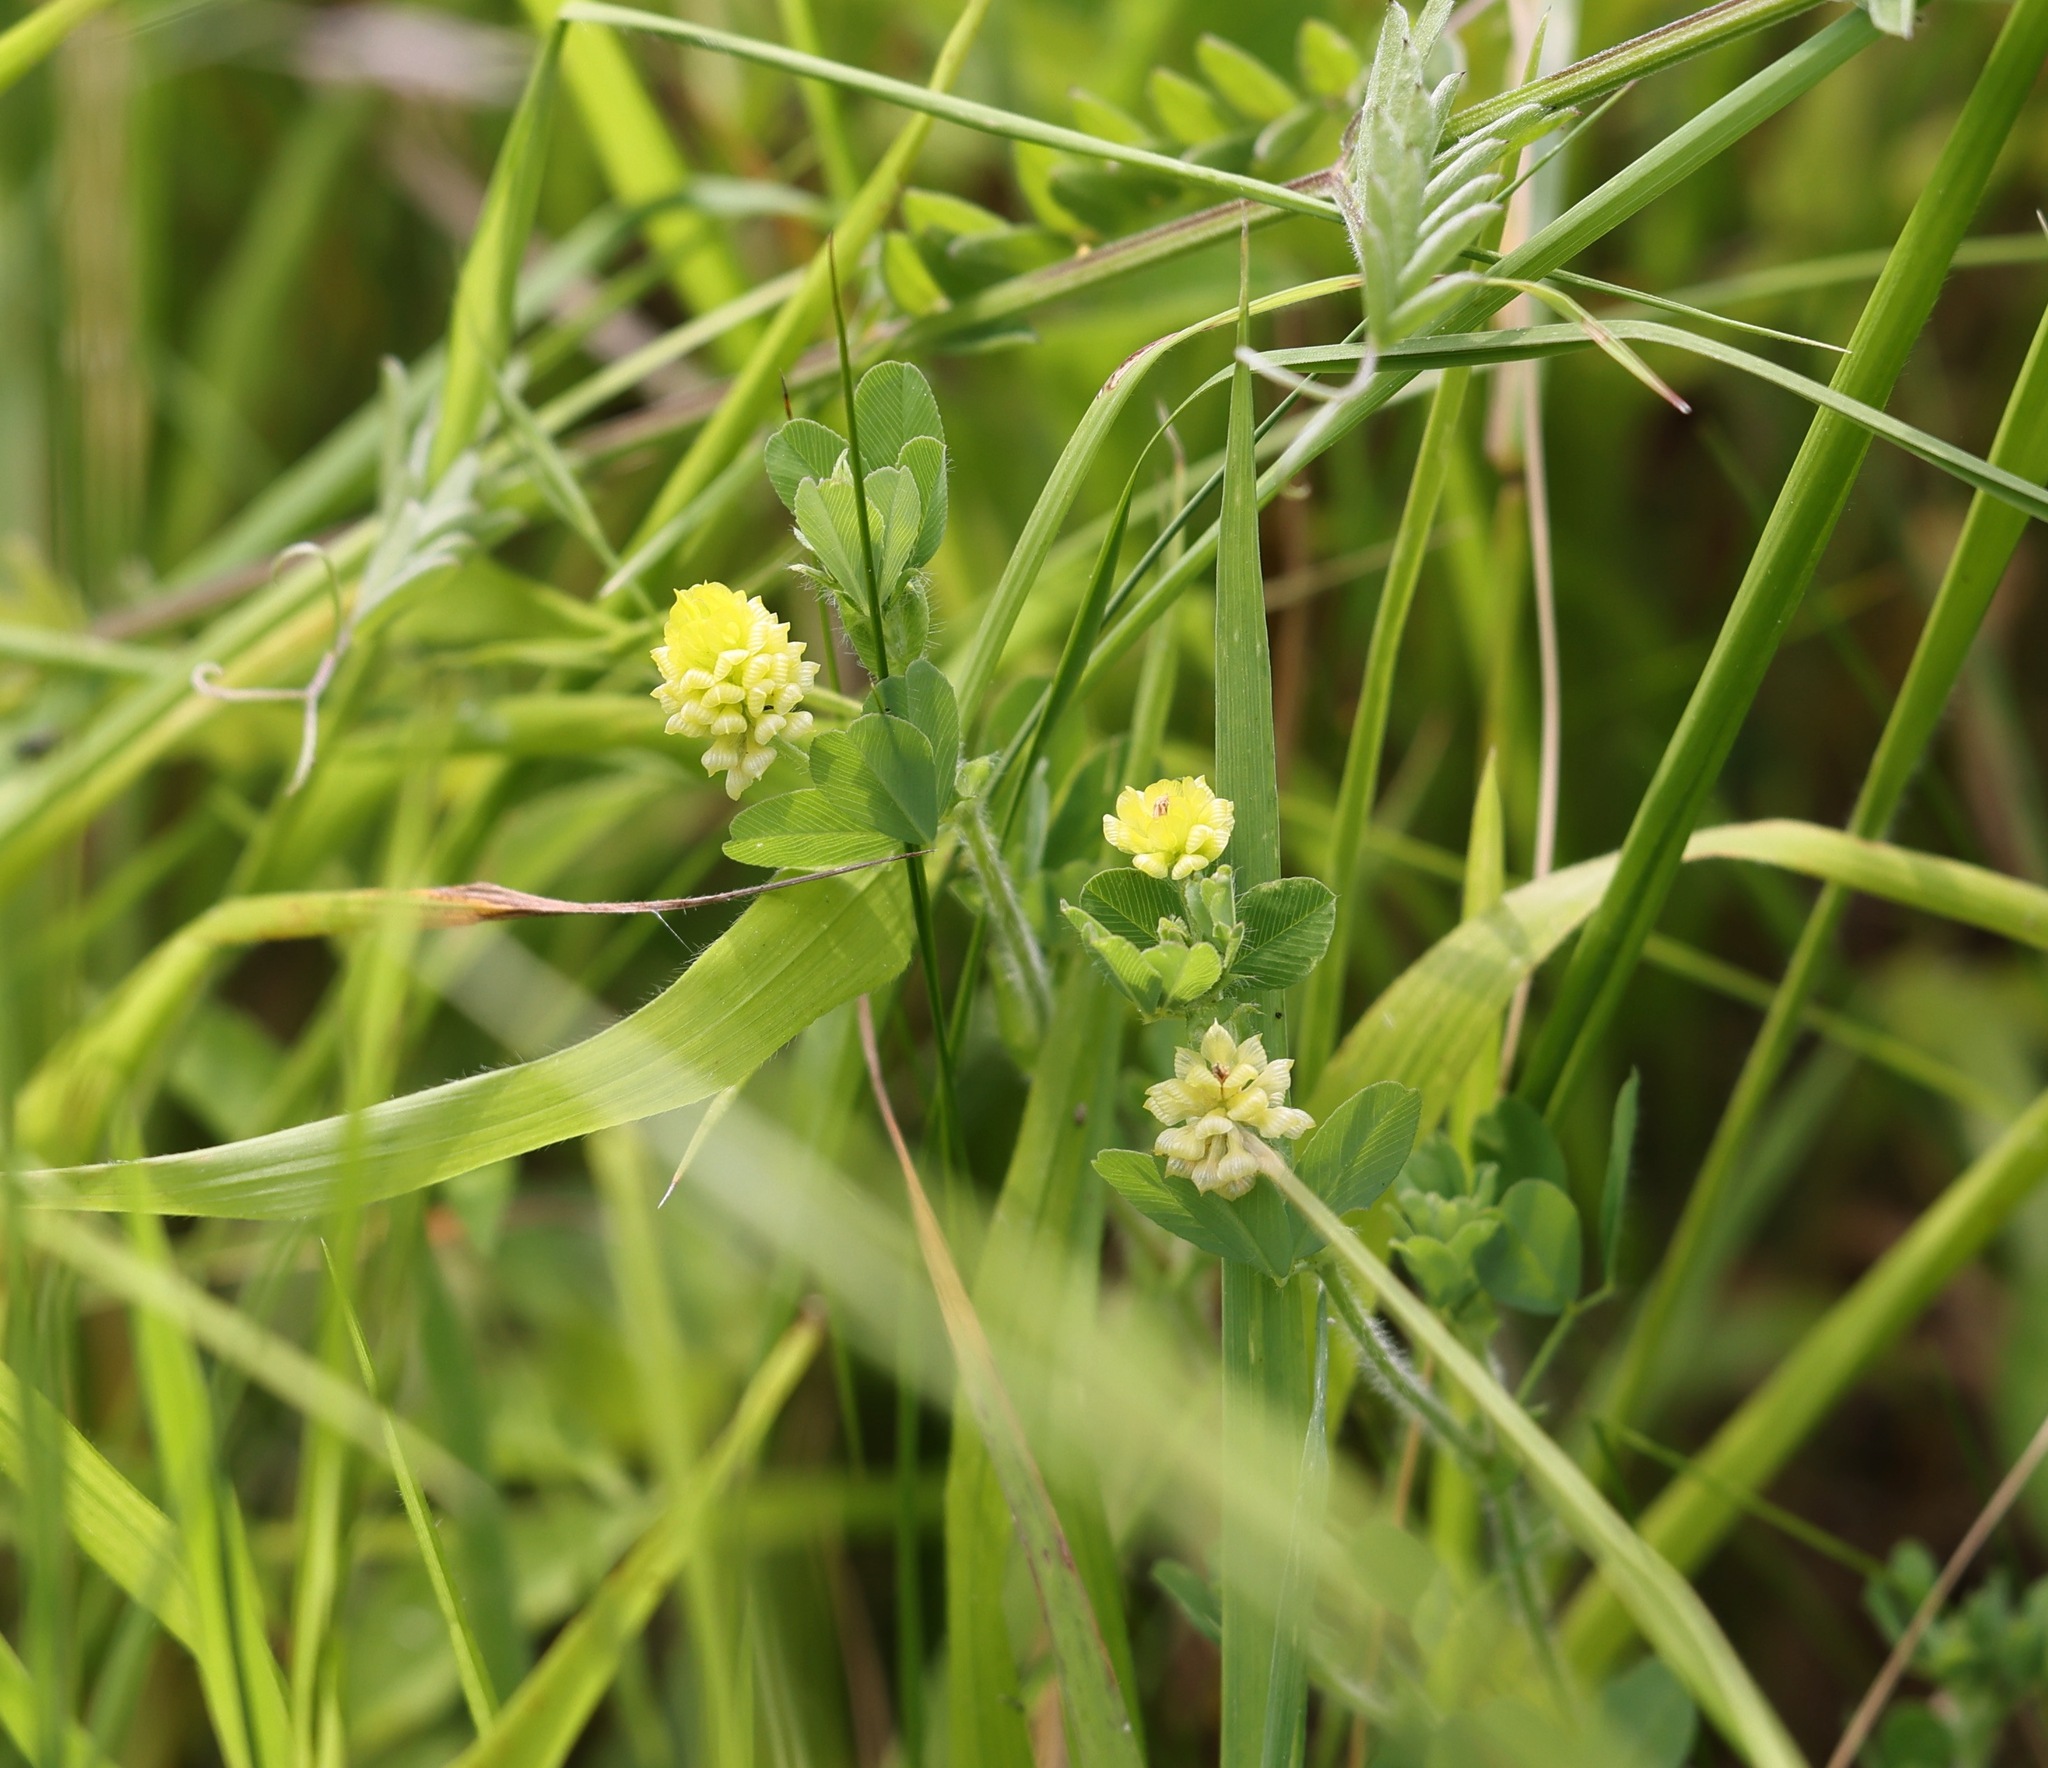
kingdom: Plantae
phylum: Tracheophyta
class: Magnoliopsida
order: Fabales
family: Fabaceae
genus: Trifolium
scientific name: Trifolium campestre
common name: Field clover
